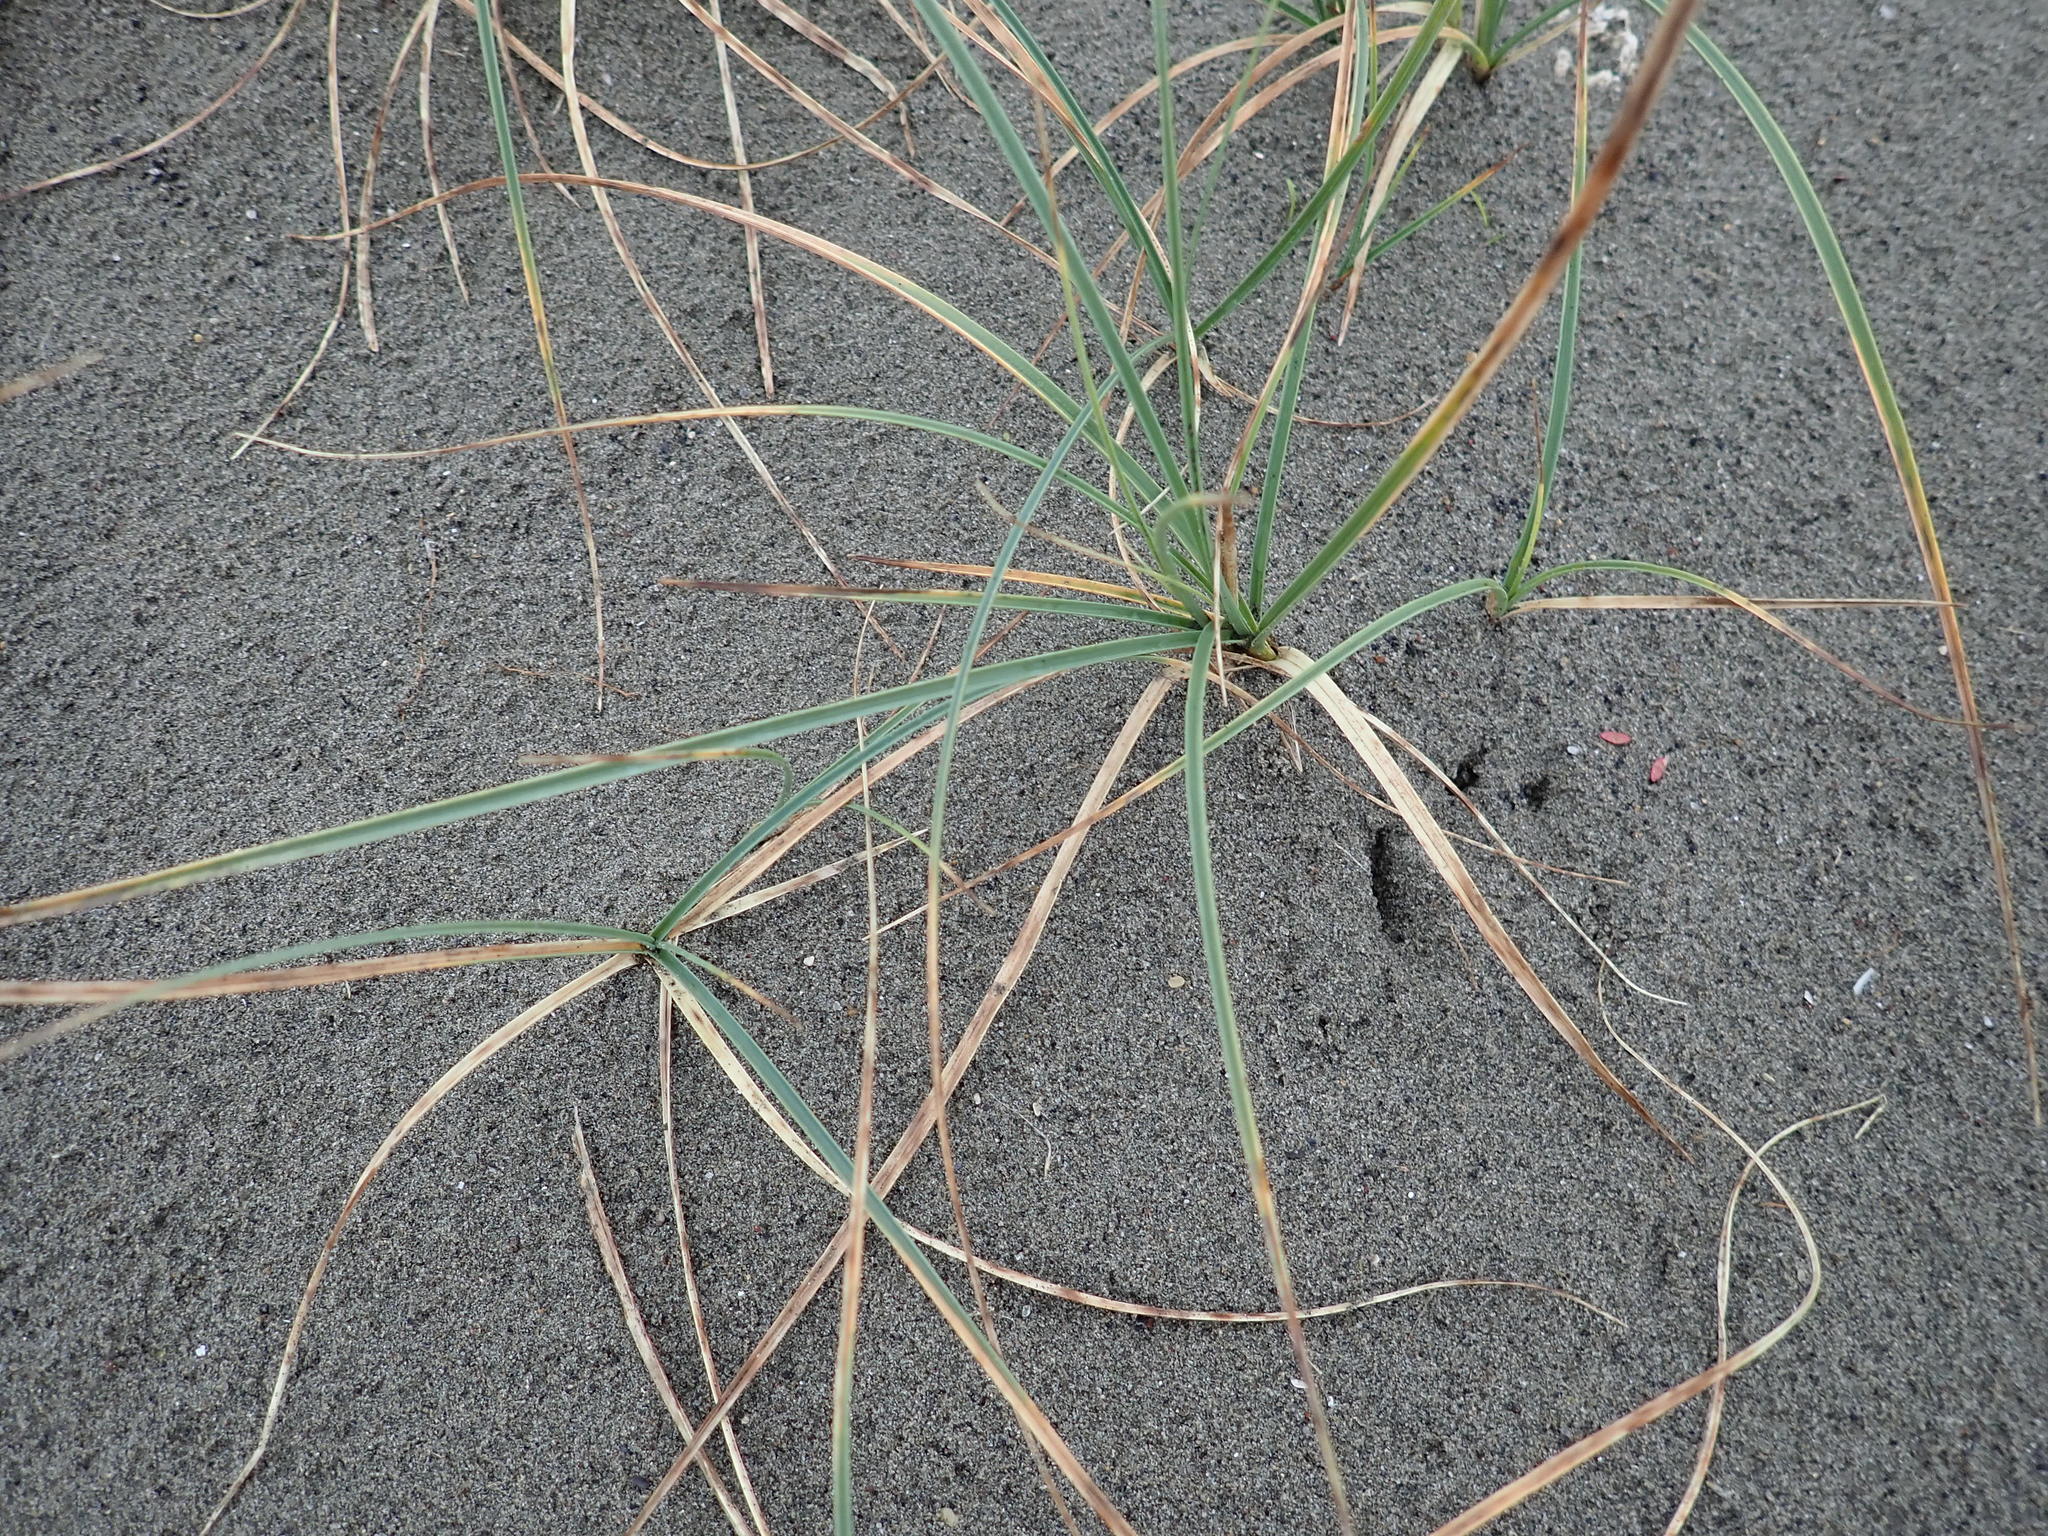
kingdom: Plantae
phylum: Tracheophyta
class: Liliopsida
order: Poales
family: Cyperaceae
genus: Carex
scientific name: Carex pumila
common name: Dwarf sedge
